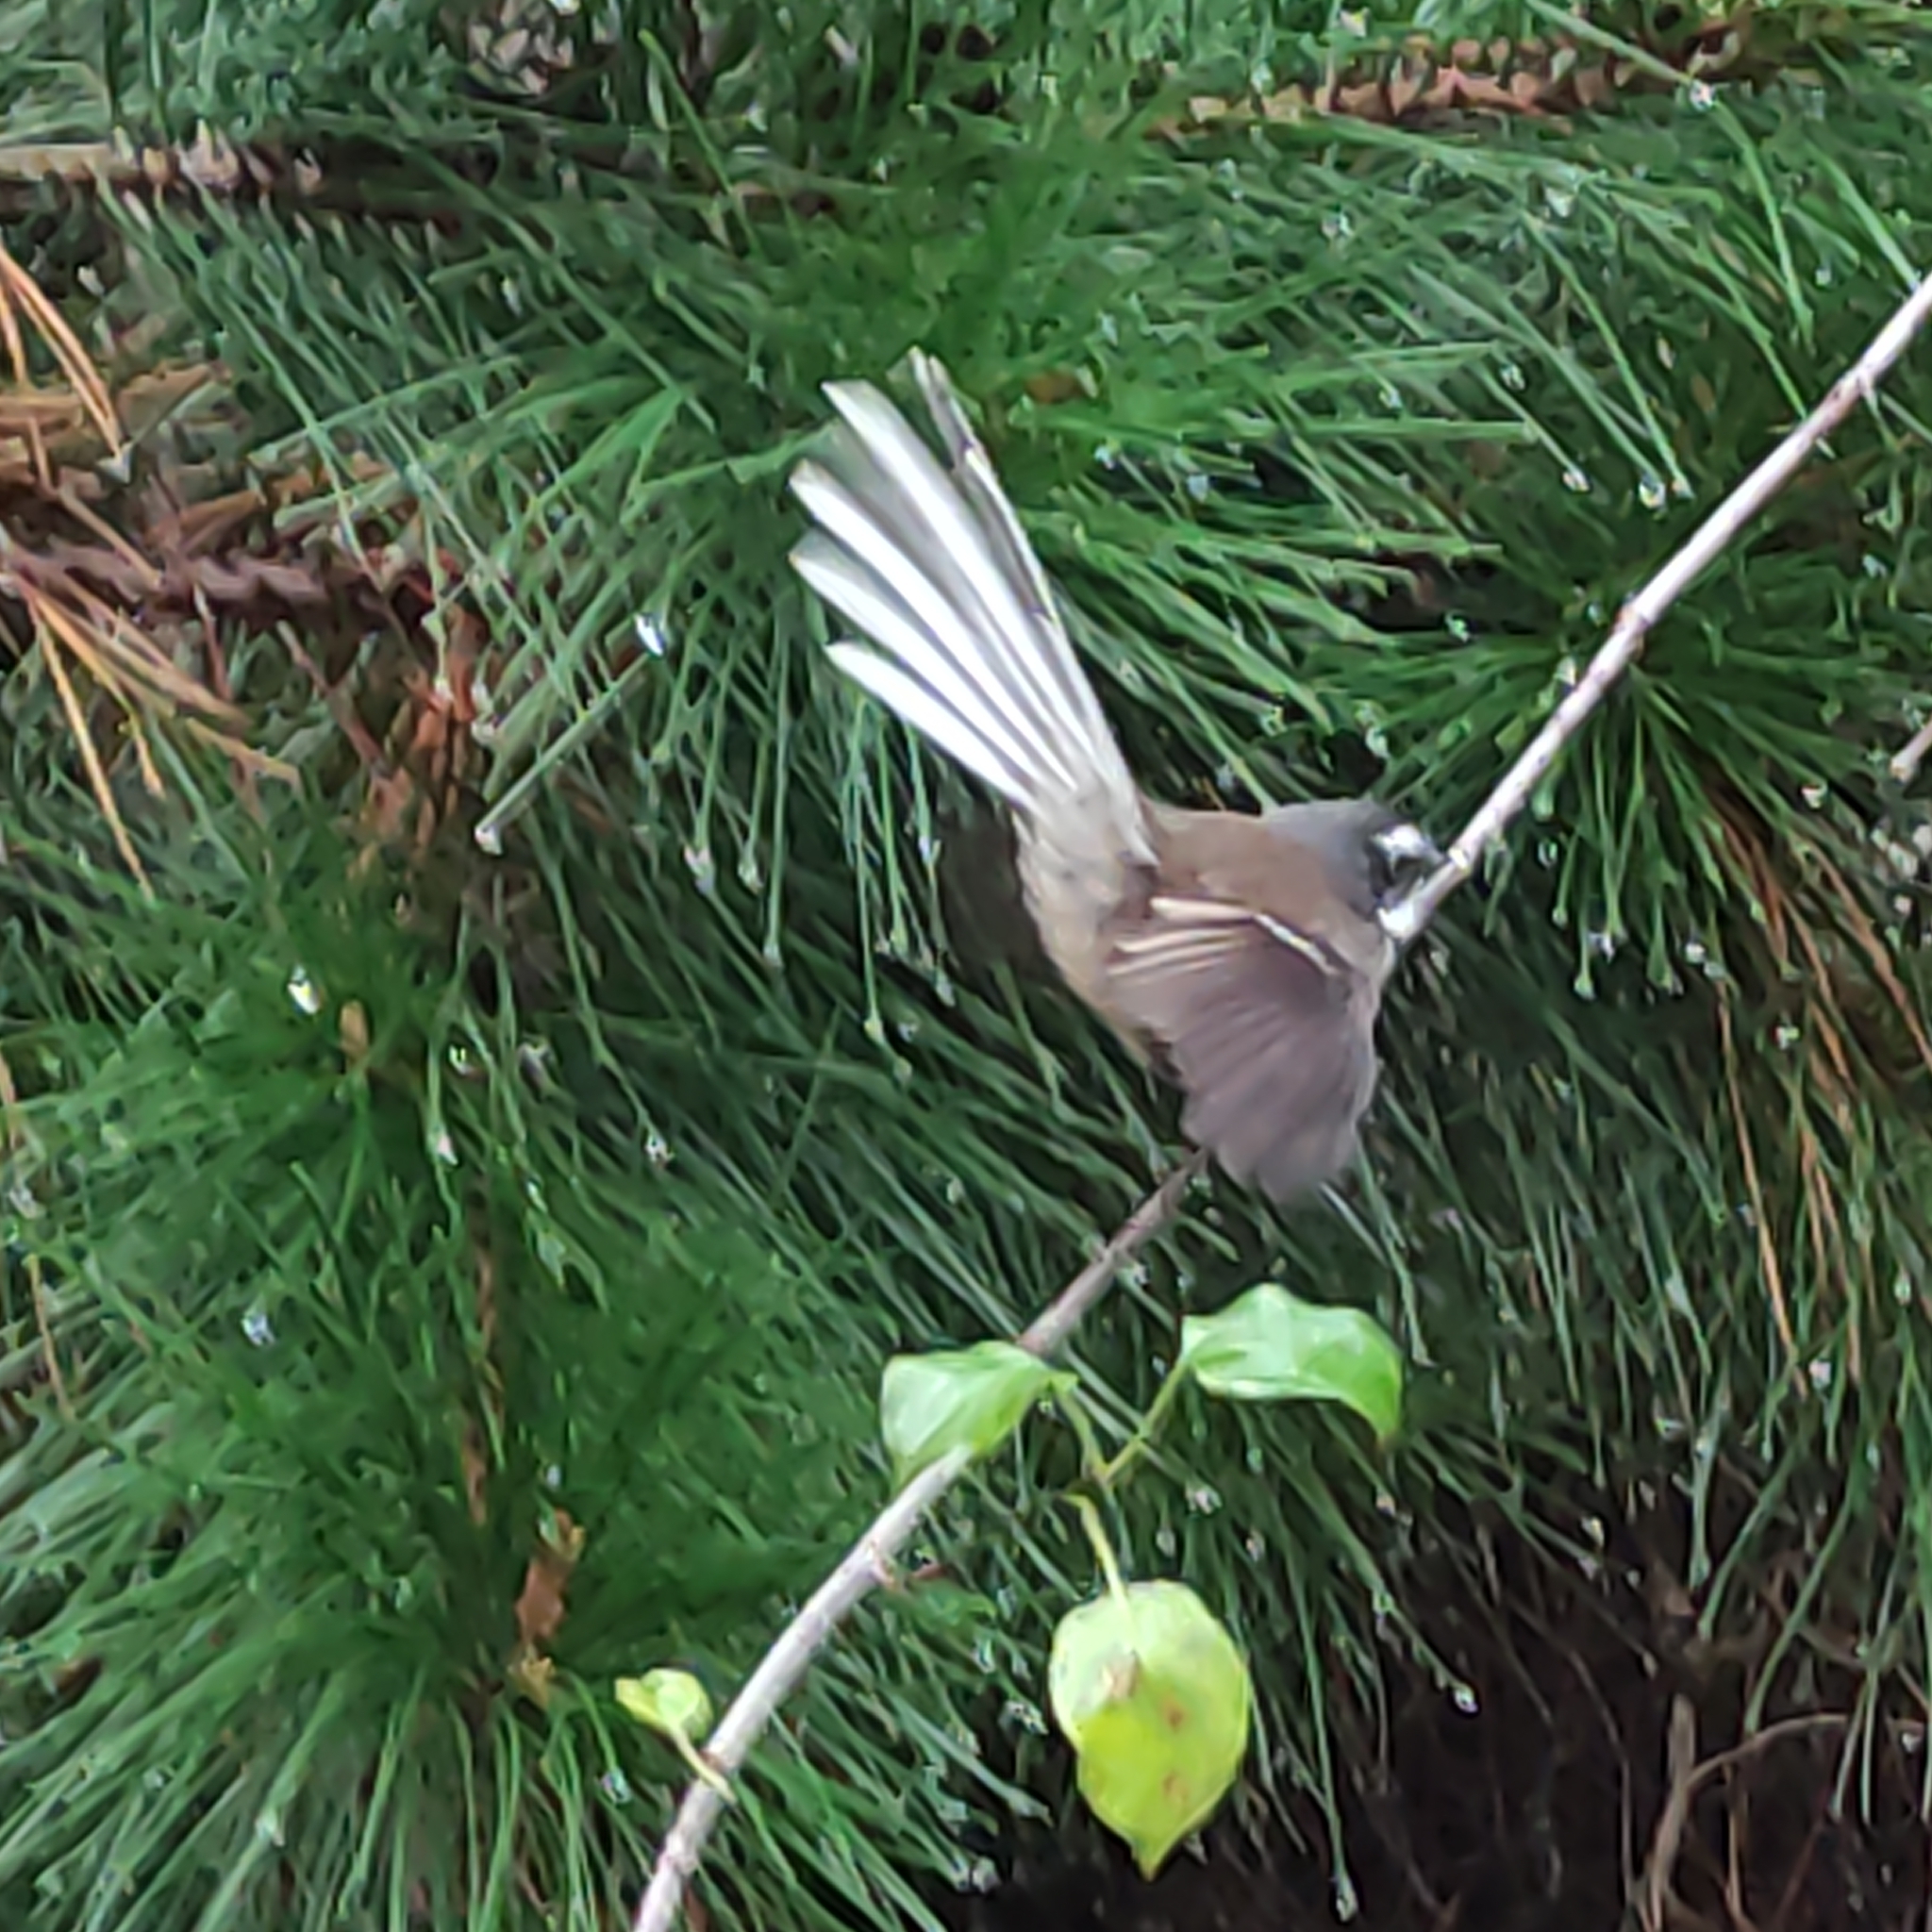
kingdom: Animalia
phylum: Chordata
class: Aves
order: Passeriformes
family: Rhipiduridae
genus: Rhipidura
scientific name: Rhipidura fuliginosa
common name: New zealand fantail
